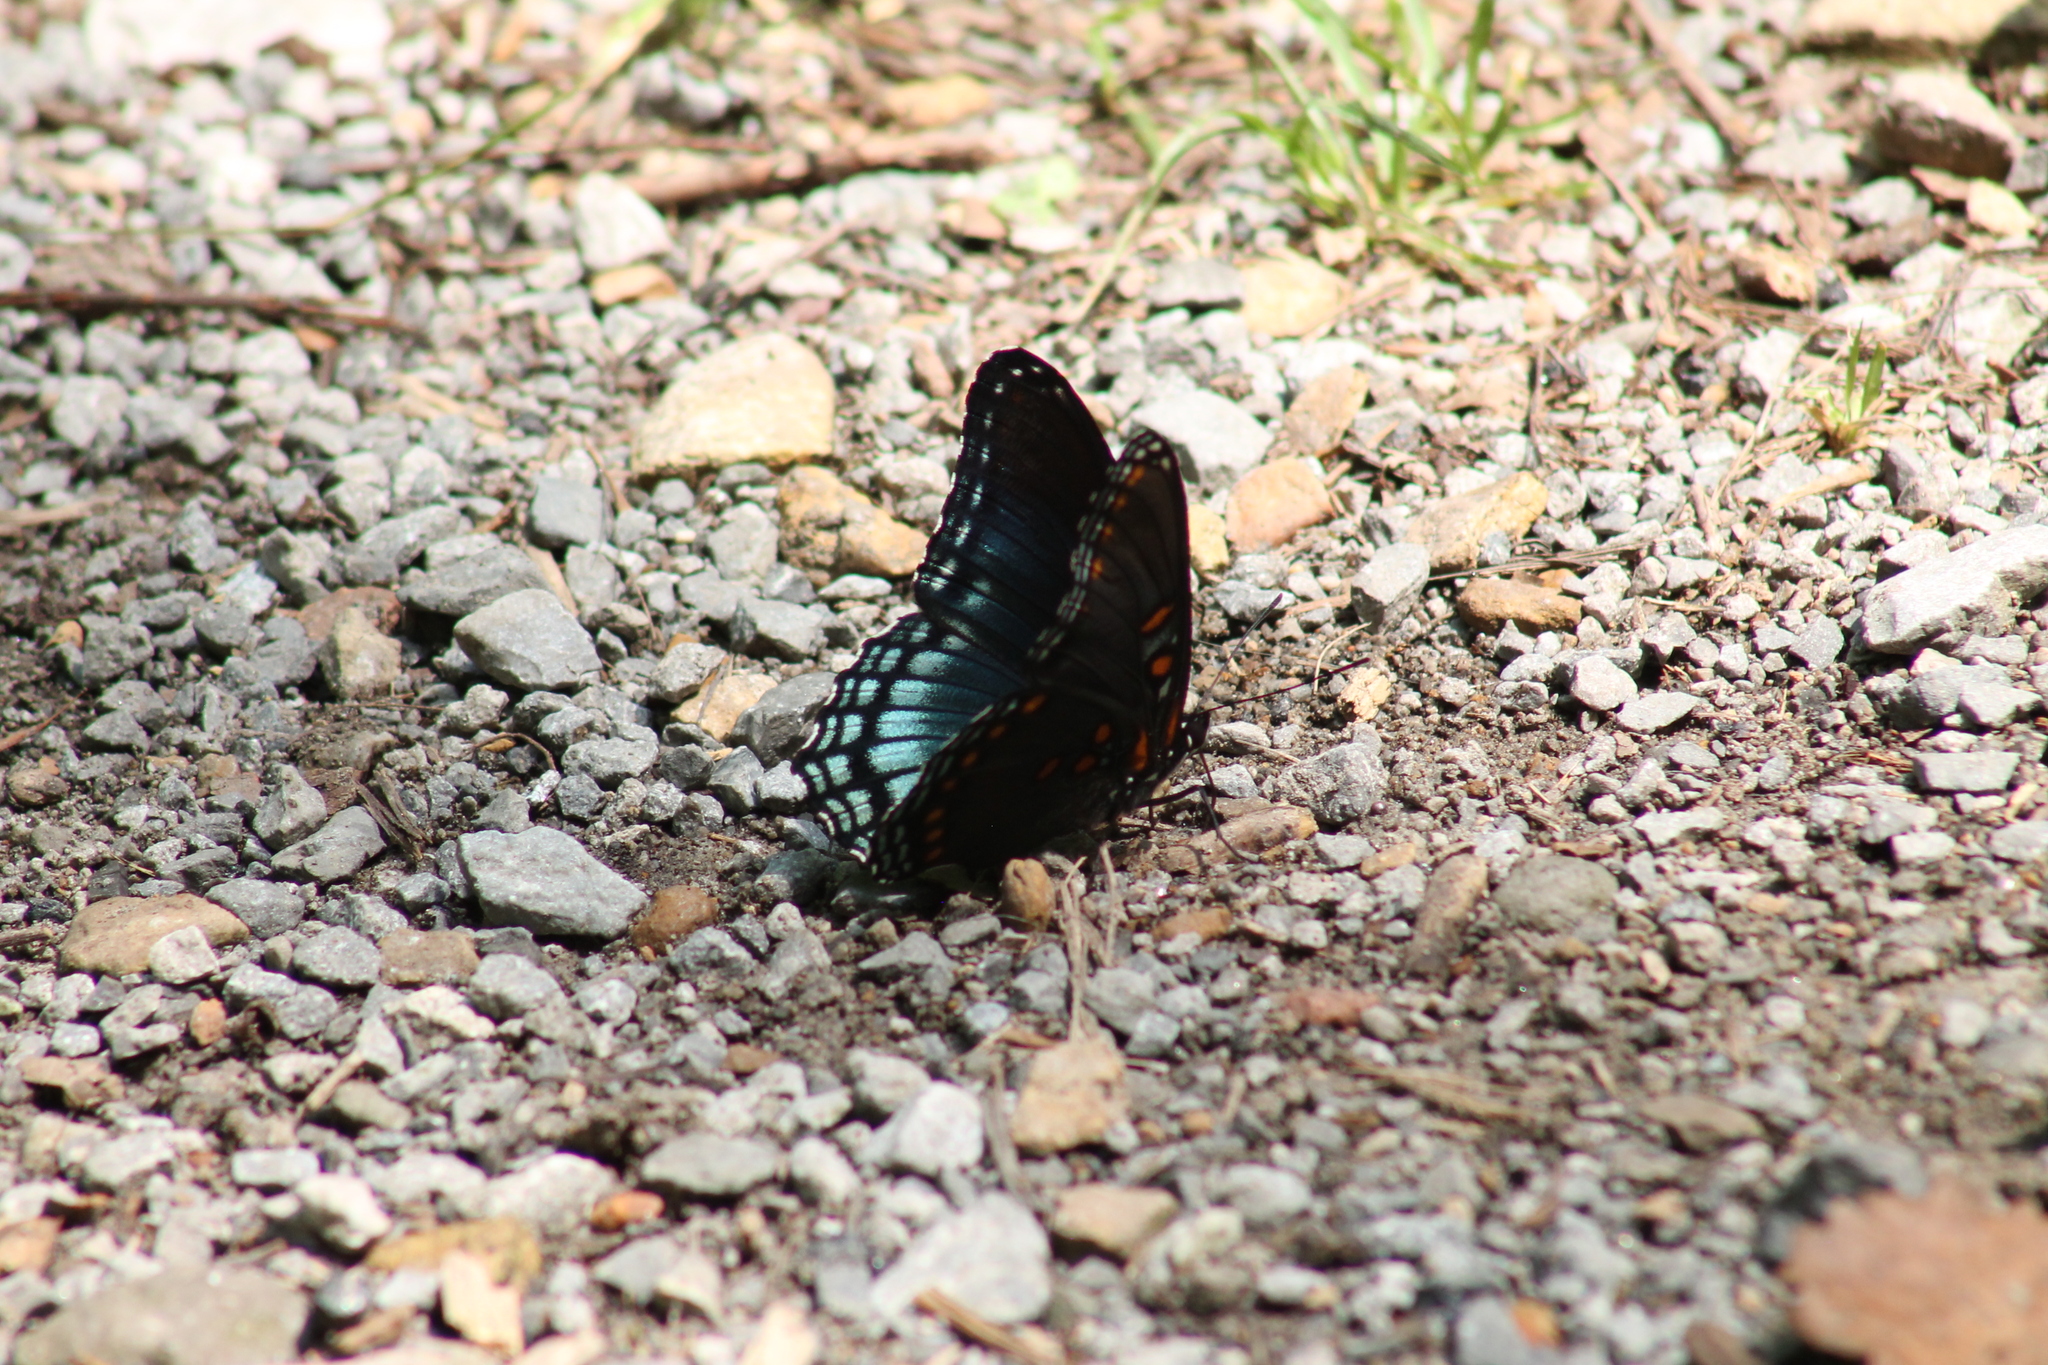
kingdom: Animalia
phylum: Arthropoda
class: Insecta
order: Lepidoptera
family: Nymphalidae
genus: Limenitis
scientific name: Limenitis arthemis
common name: Red-spotted admiral
